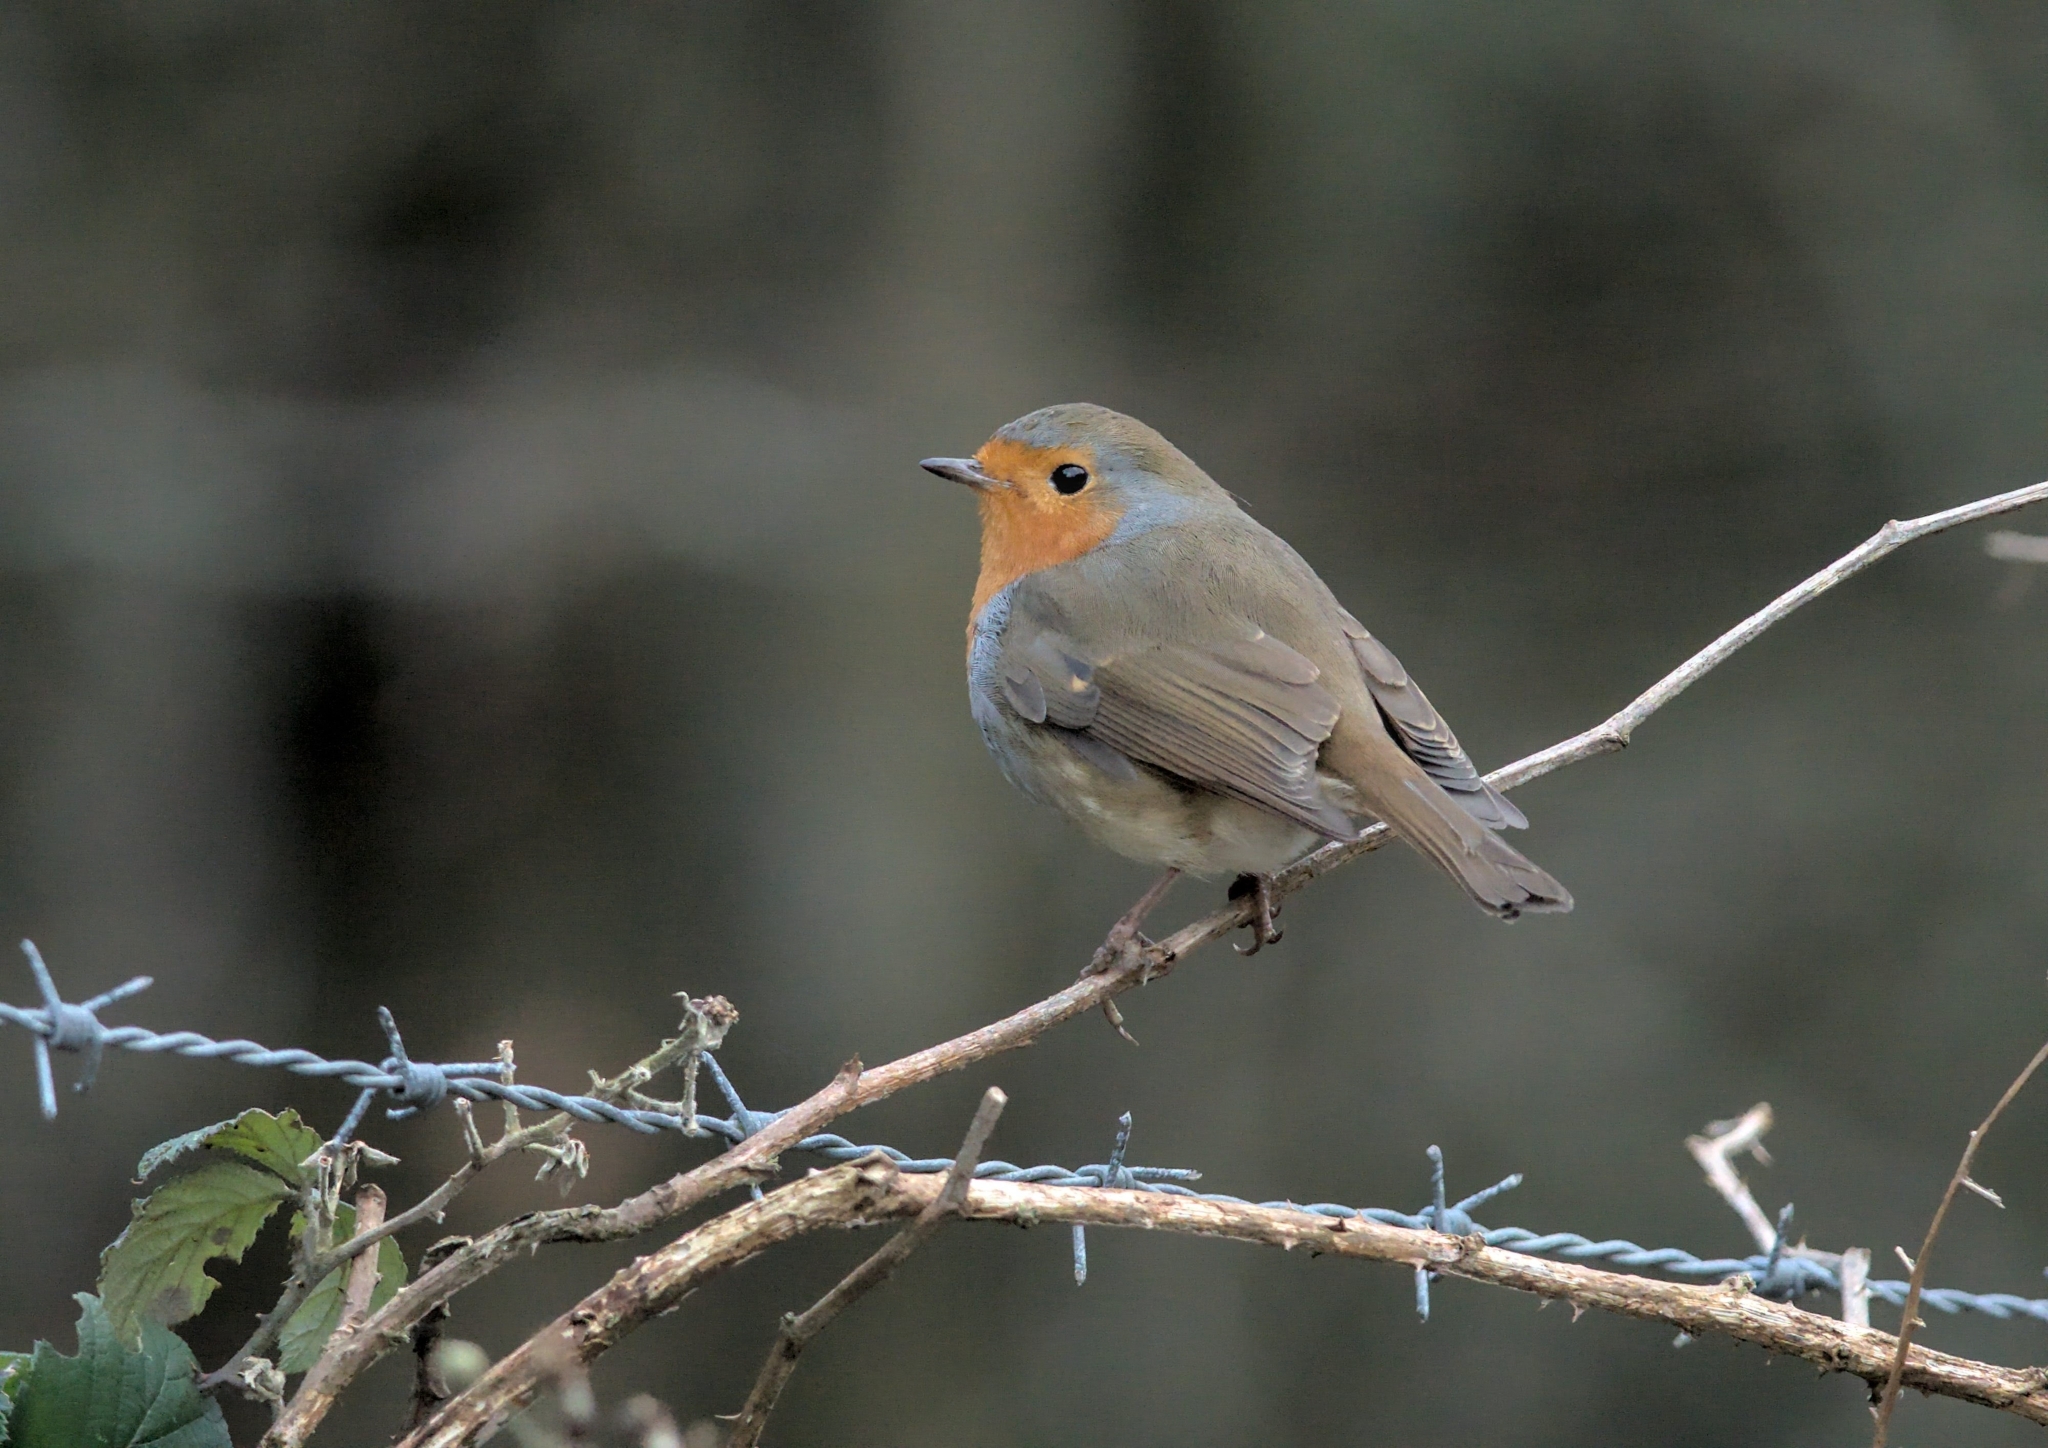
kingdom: Animalia
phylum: Chordata
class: Aves
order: Passeriformes
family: Muscicapidae
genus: Erithacus
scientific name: Erithacus rubecula
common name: European robin
